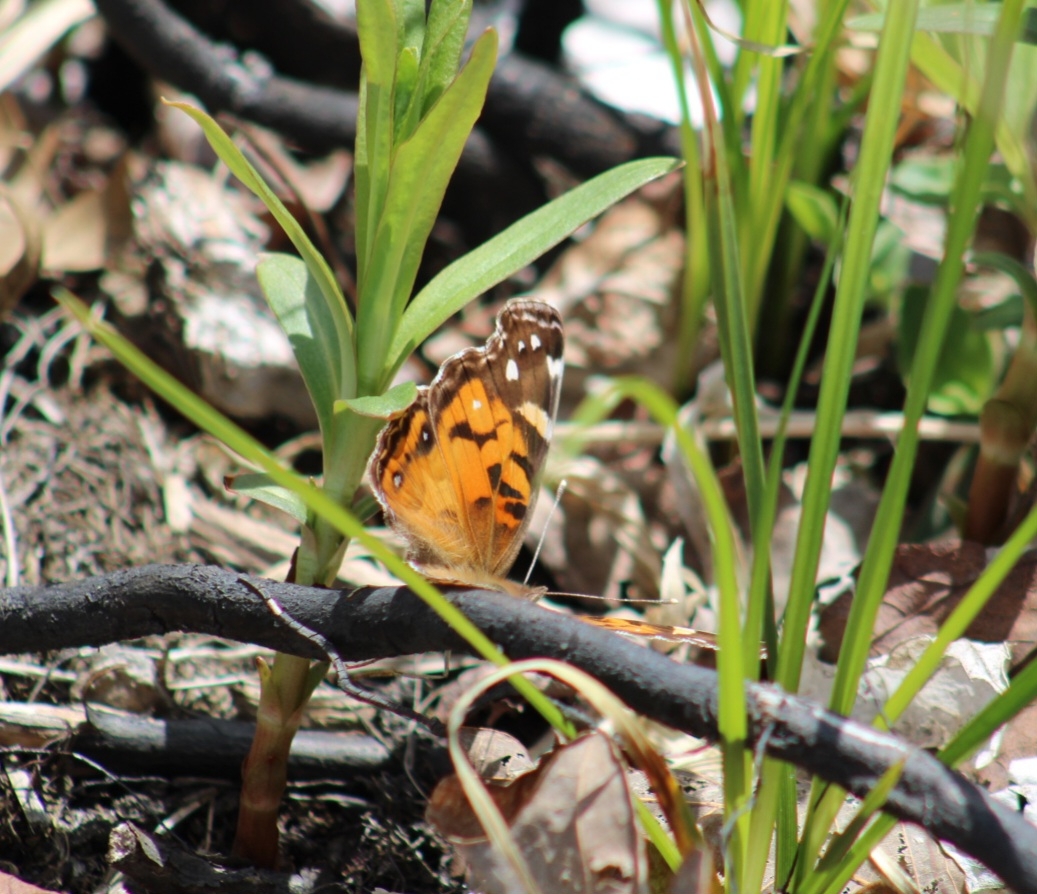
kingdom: Animalia
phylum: Arthropoda
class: Insecta
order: Lepidoptera
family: Nymphalidae
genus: Vanessa
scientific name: Vanessa virginiensis
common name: American lady
